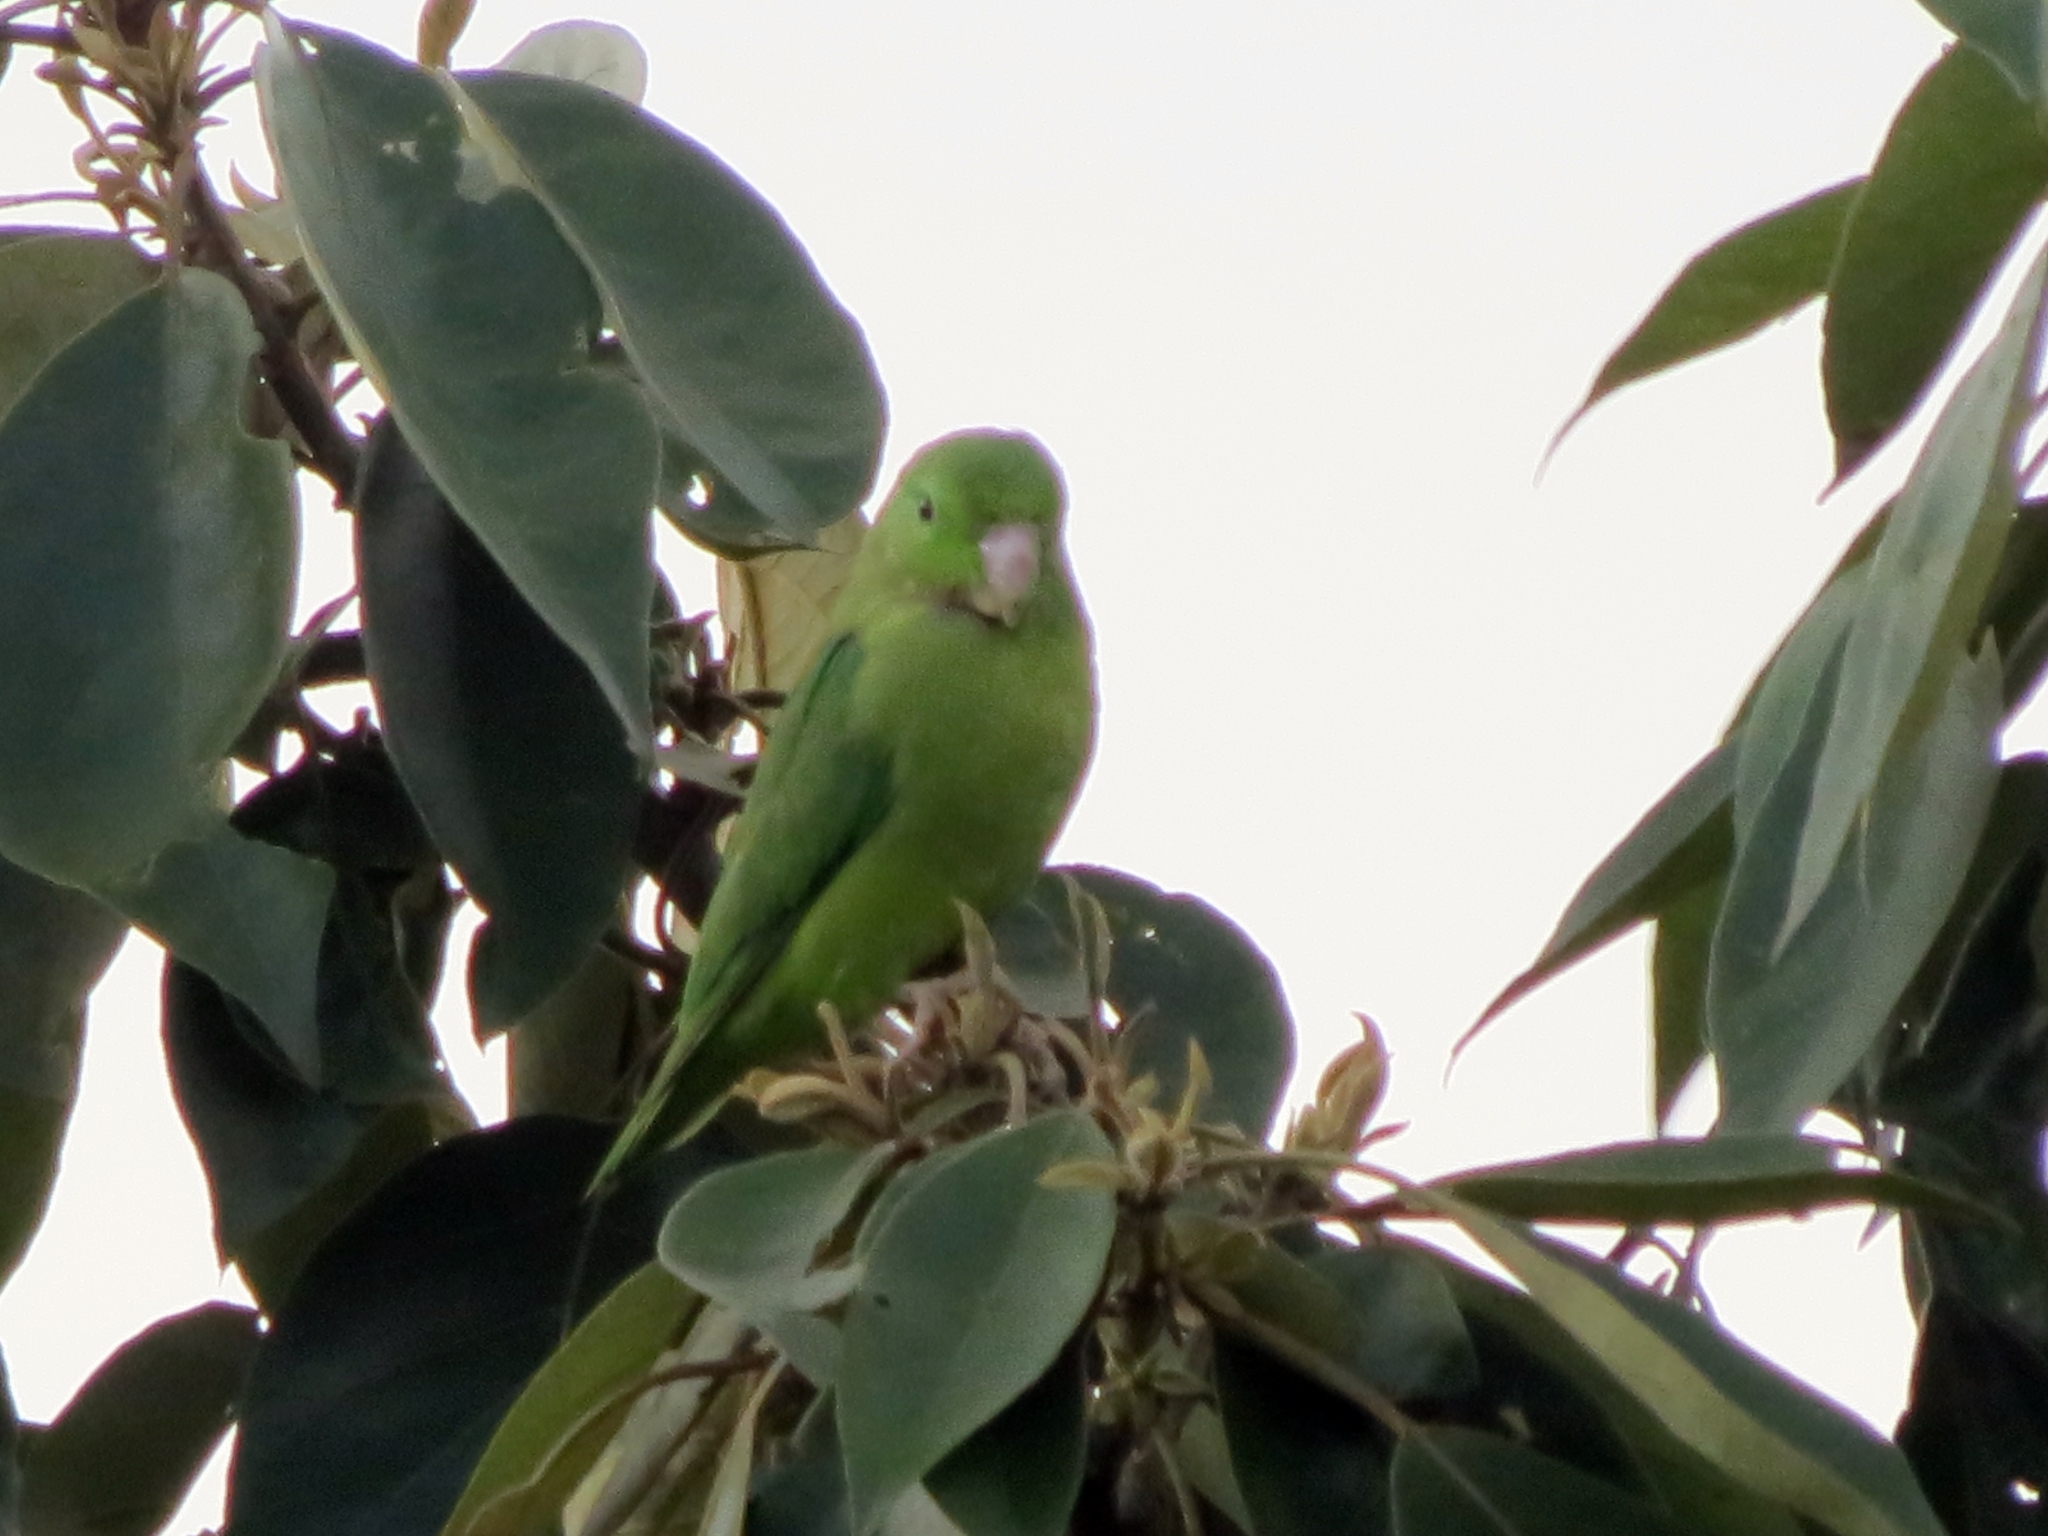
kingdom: Animalia
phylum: Chordata
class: Aves
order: Psittaciformes
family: Psittacidae
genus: Forpus
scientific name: Forpus conspicillatus
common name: Spectacled parrotlet
